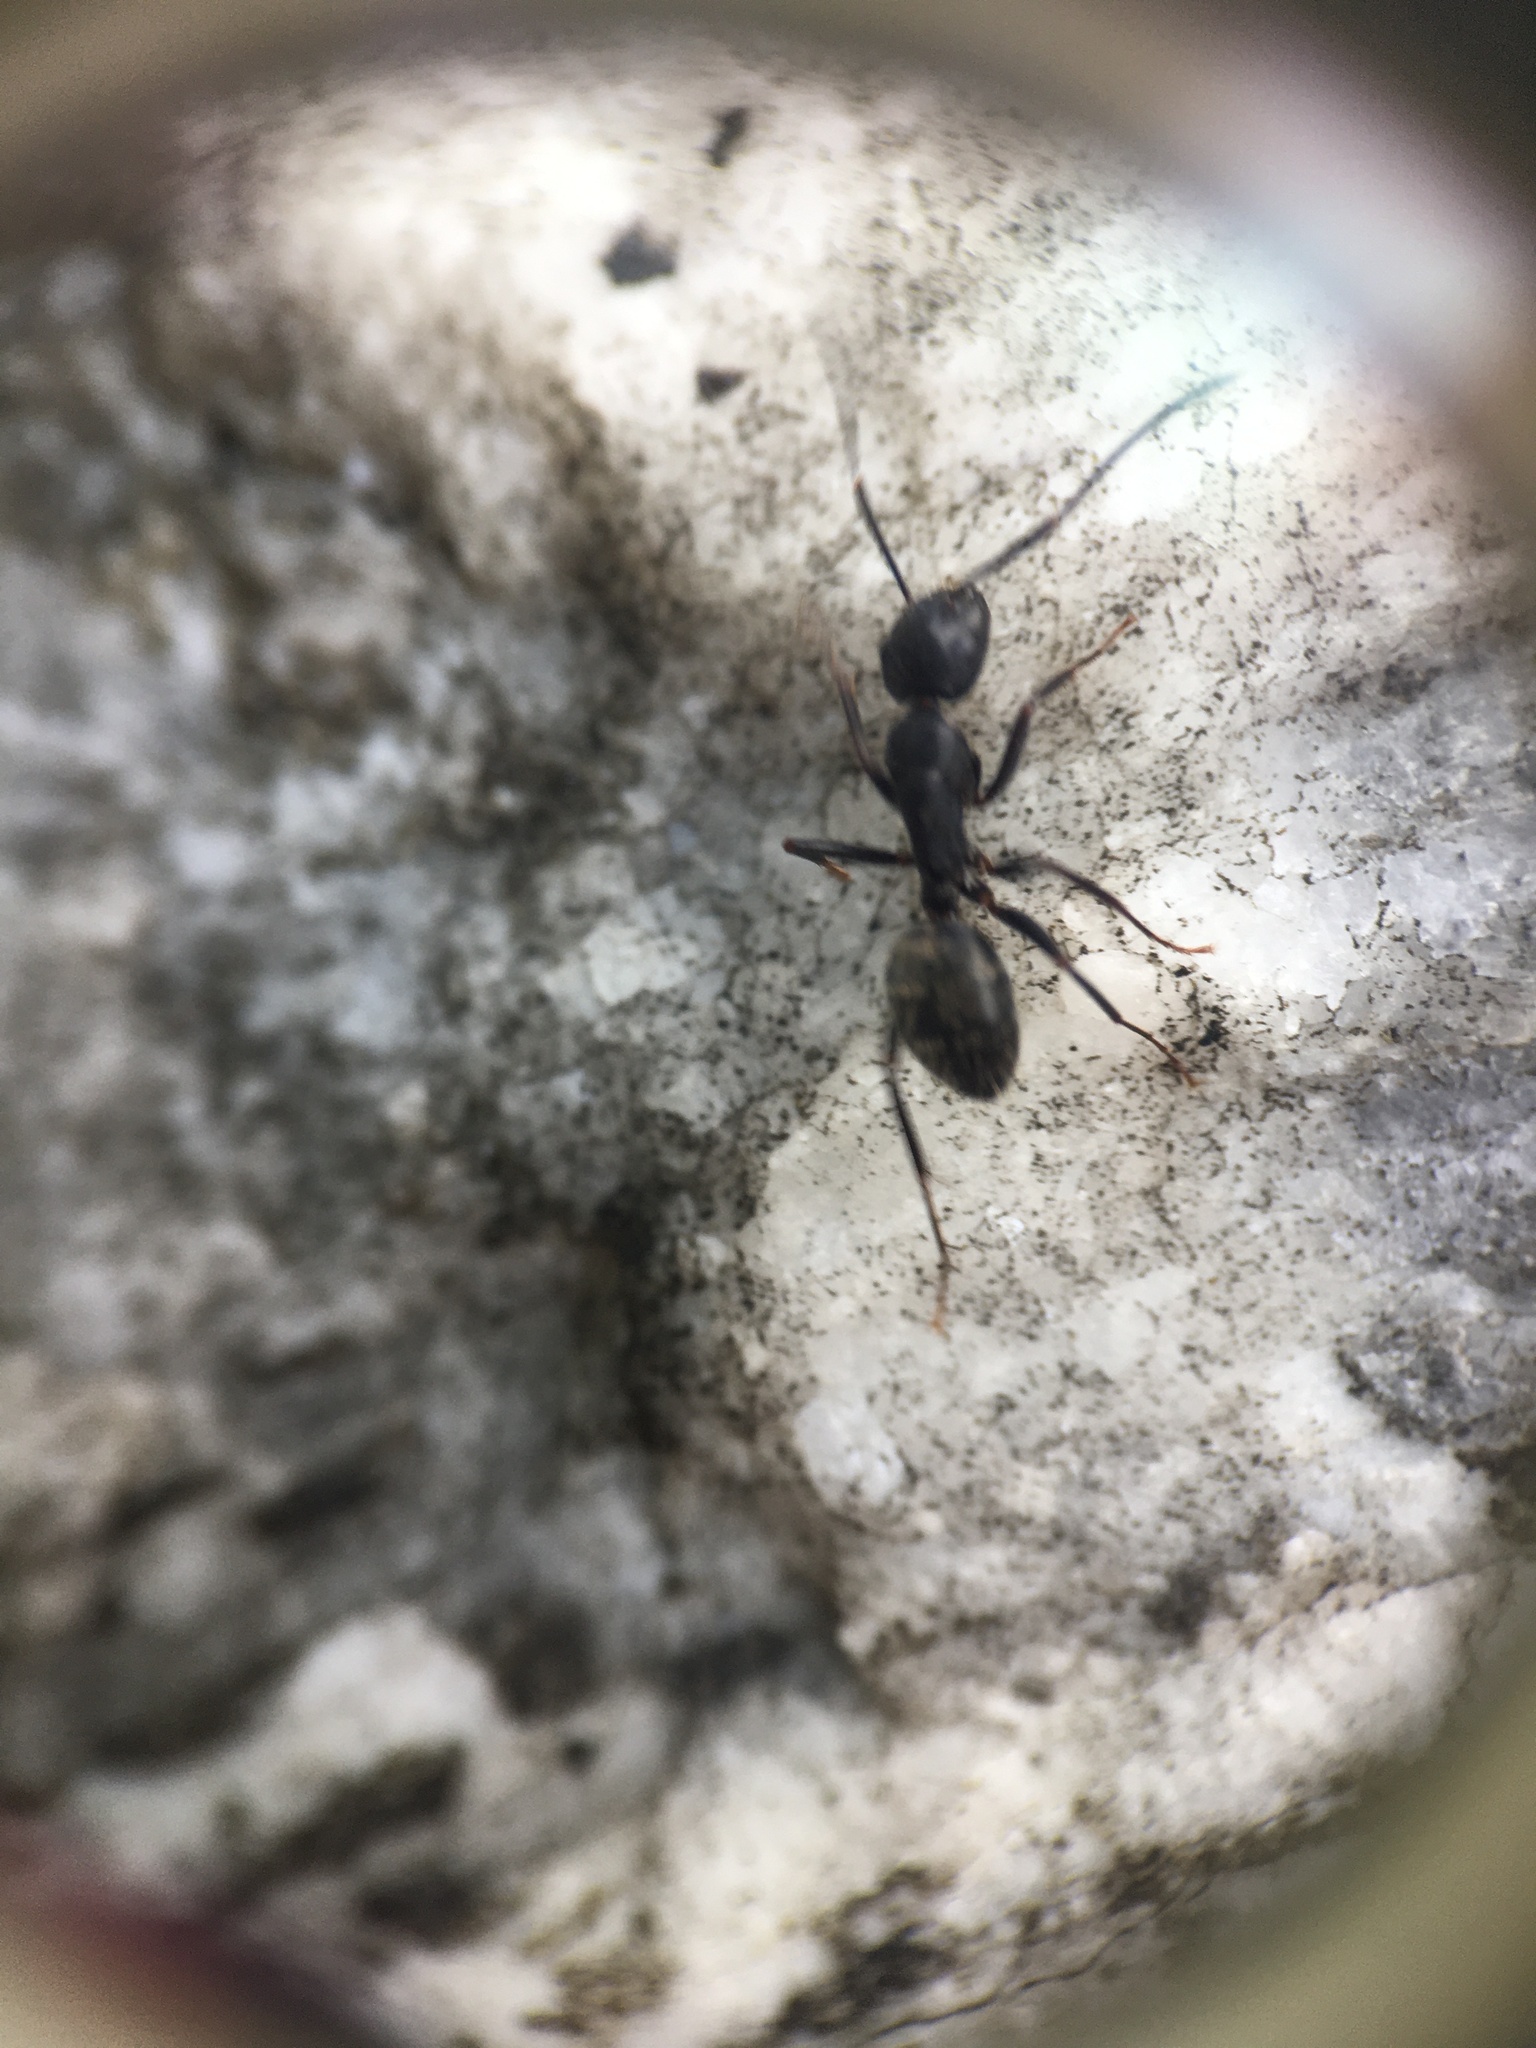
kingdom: Animalia
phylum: Arthropoda
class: Insecta
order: Hymenoptera
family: Formicidae
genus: Camponotus
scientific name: Camponotus pennsylvanicus
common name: Black carpenter ant
